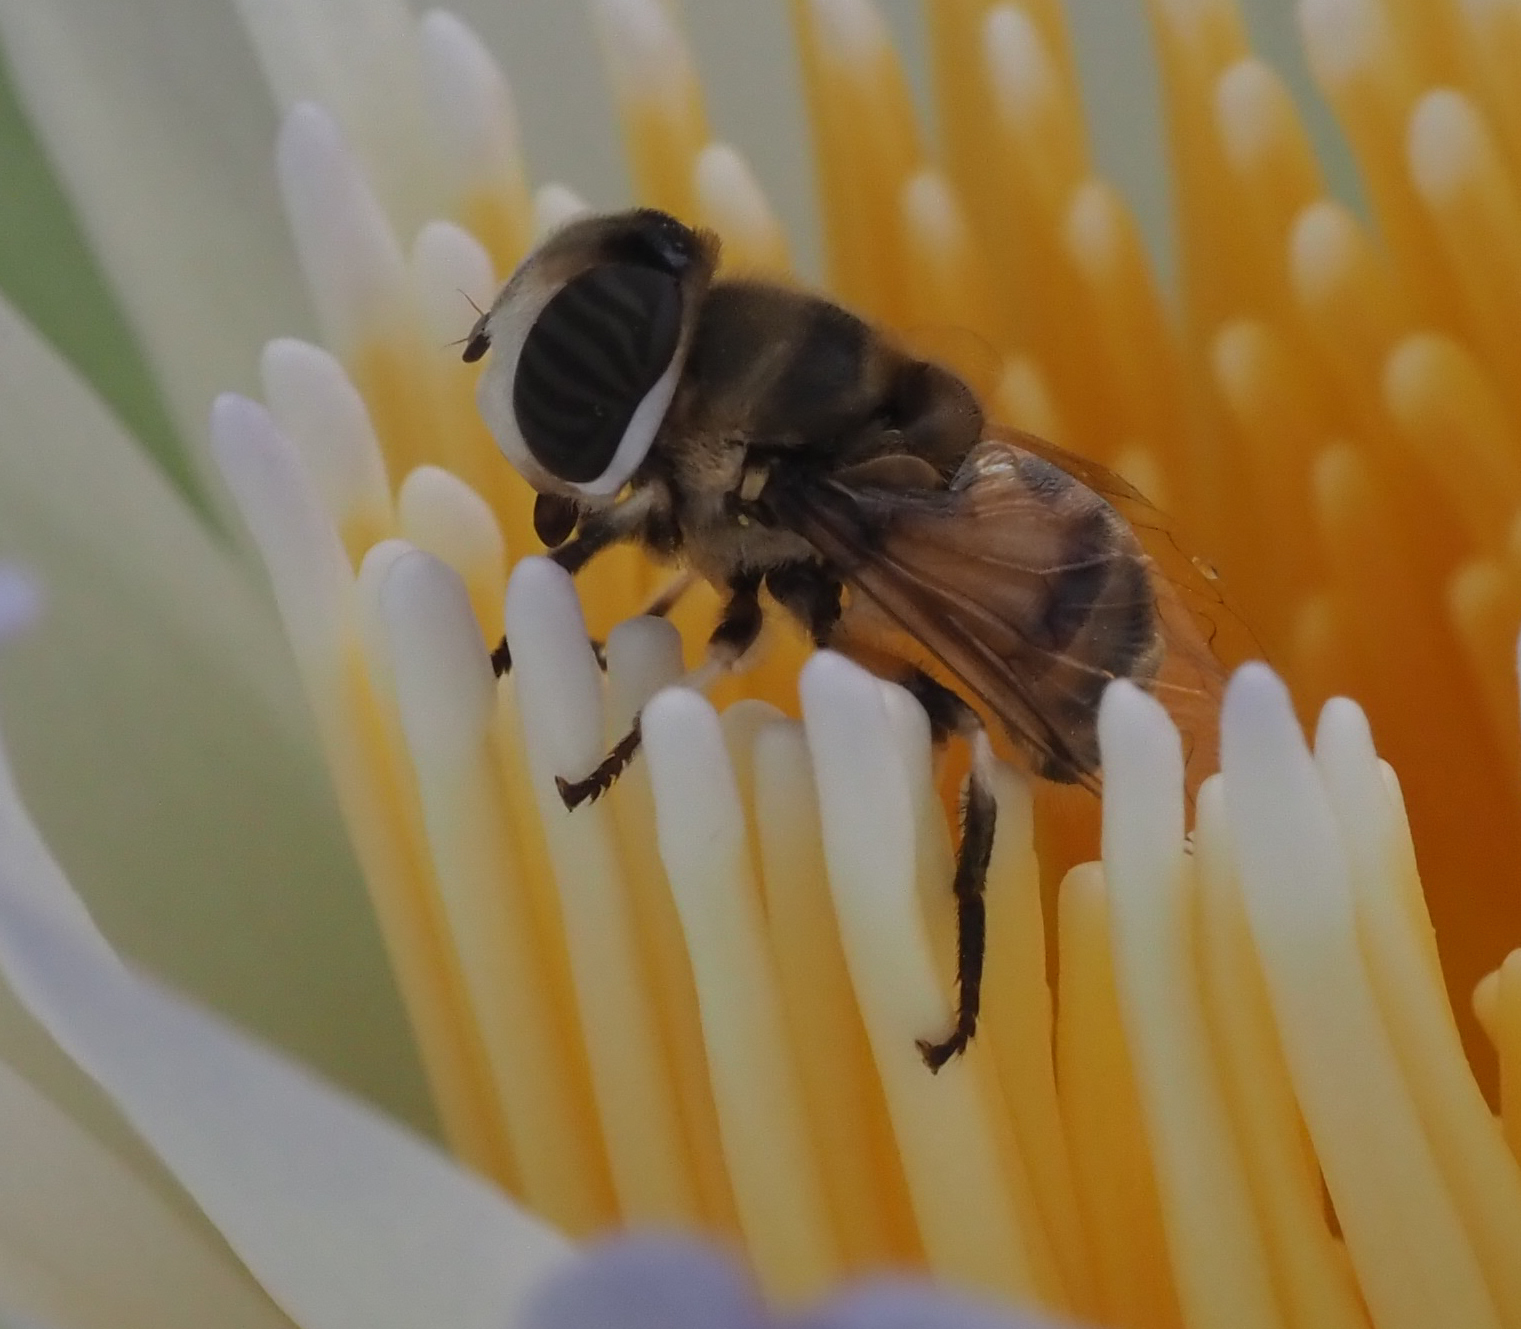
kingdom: Animalia
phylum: Arthropoda
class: Insecta
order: Diptera
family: Syrphidae
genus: Phytomia
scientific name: Phytomia erratica
